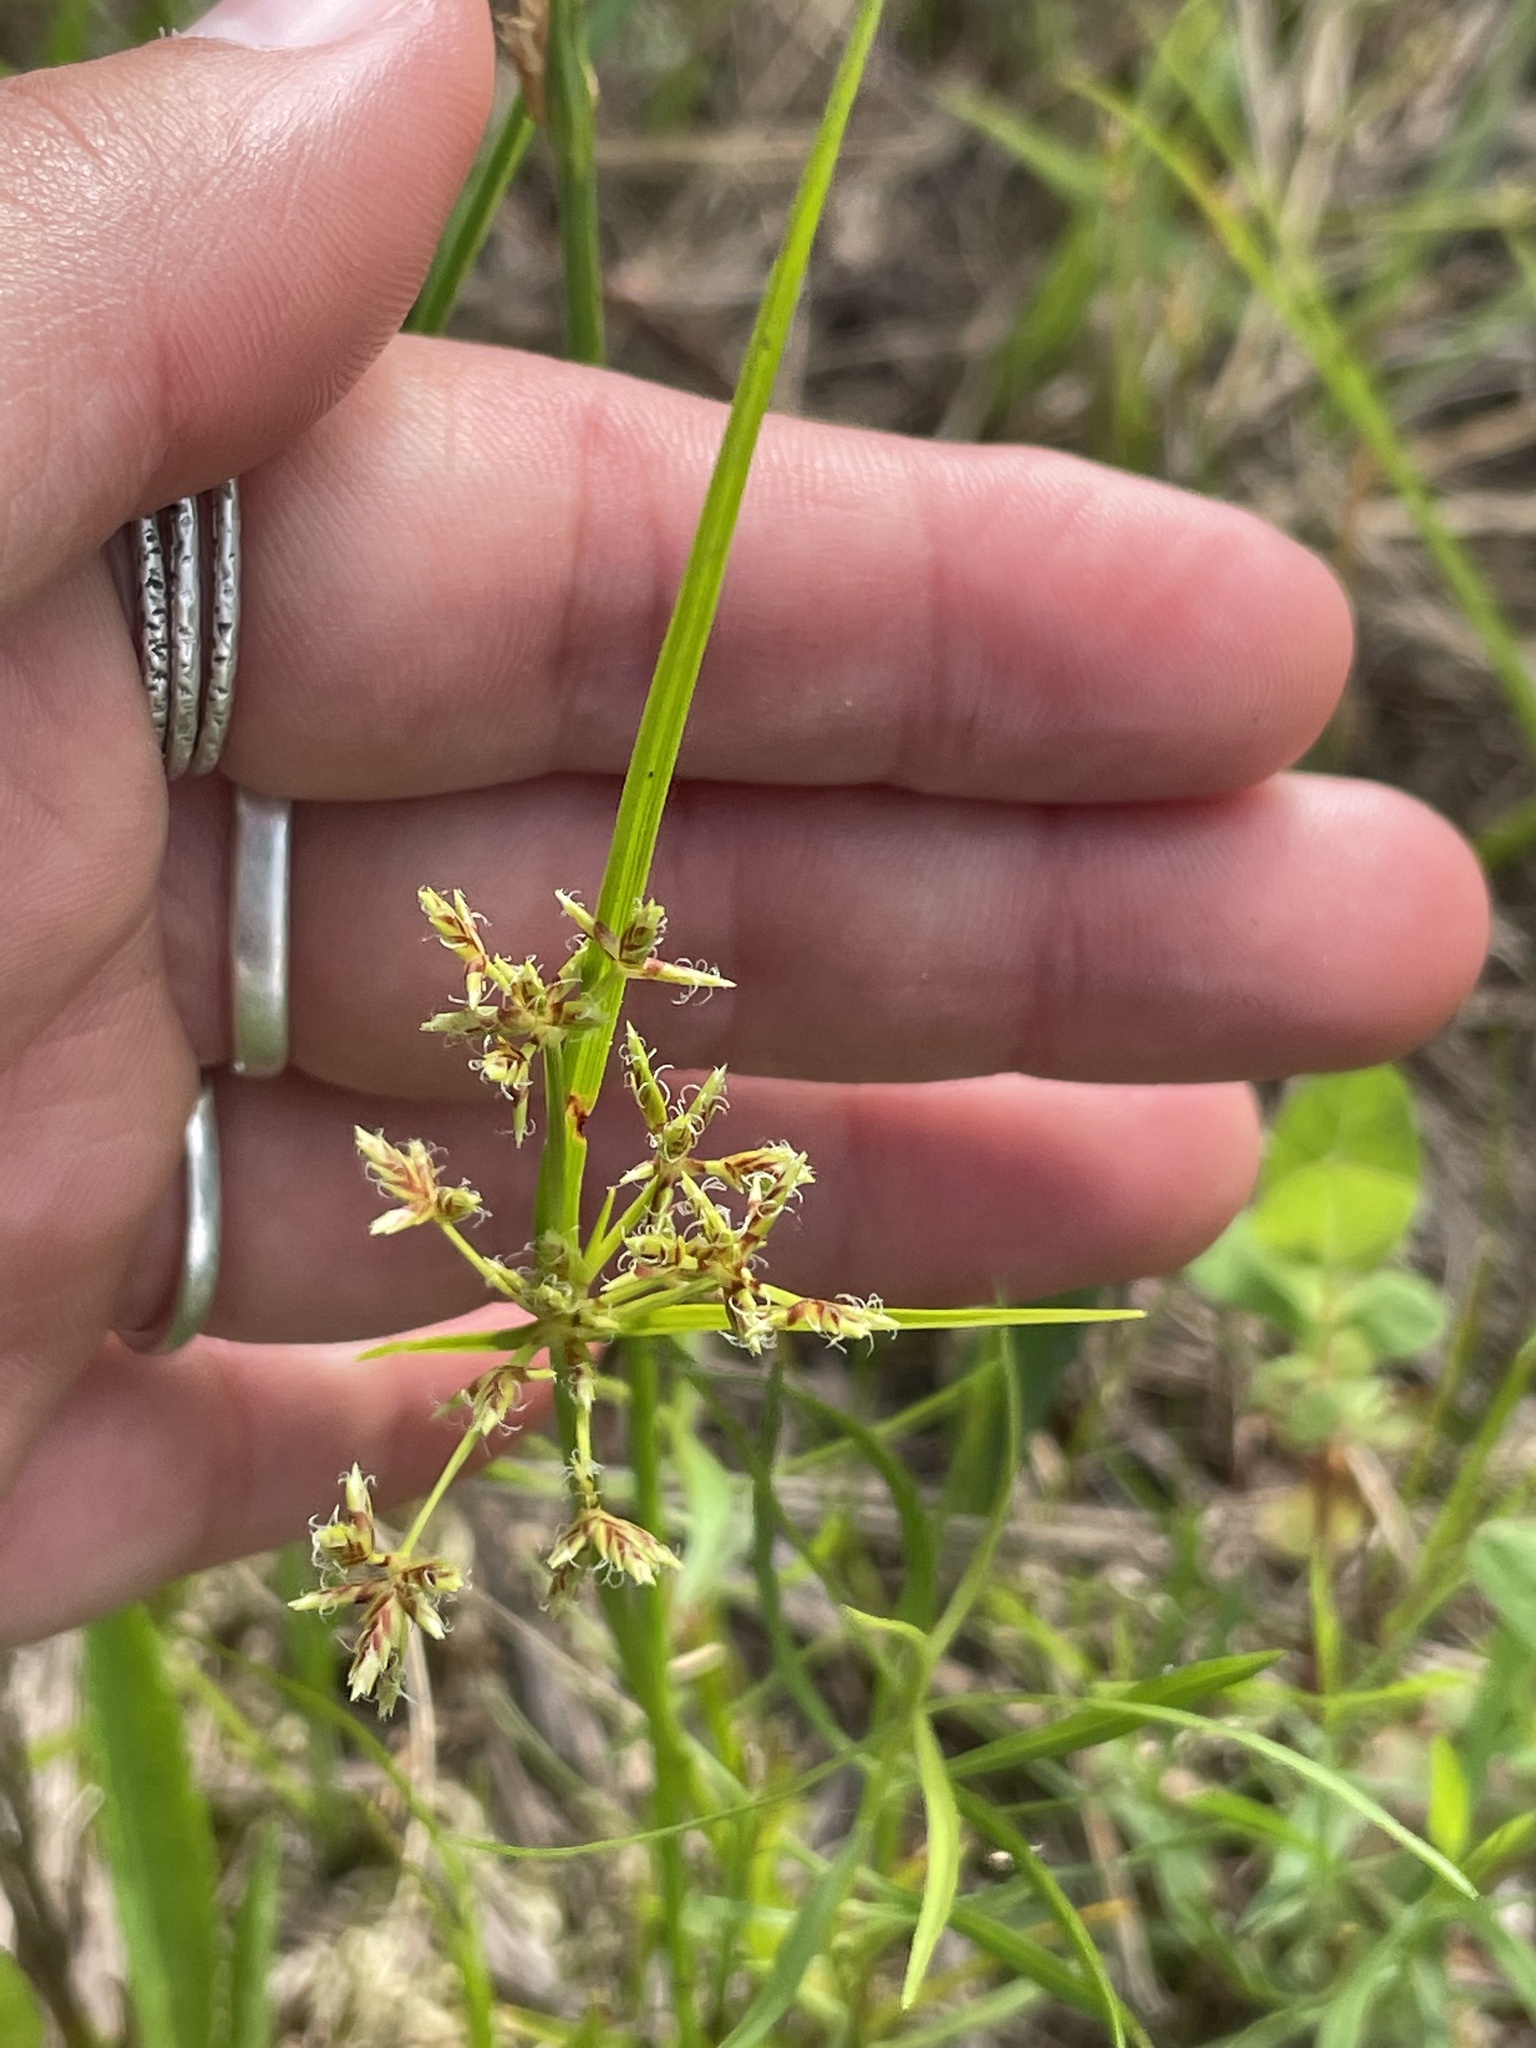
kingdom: Plantae
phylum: Tracheophyta
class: Liliopsida
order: Poales
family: Cyperaceae
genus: Cyperus
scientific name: Cyperus dentatus
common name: Dentate umbrella sedge
